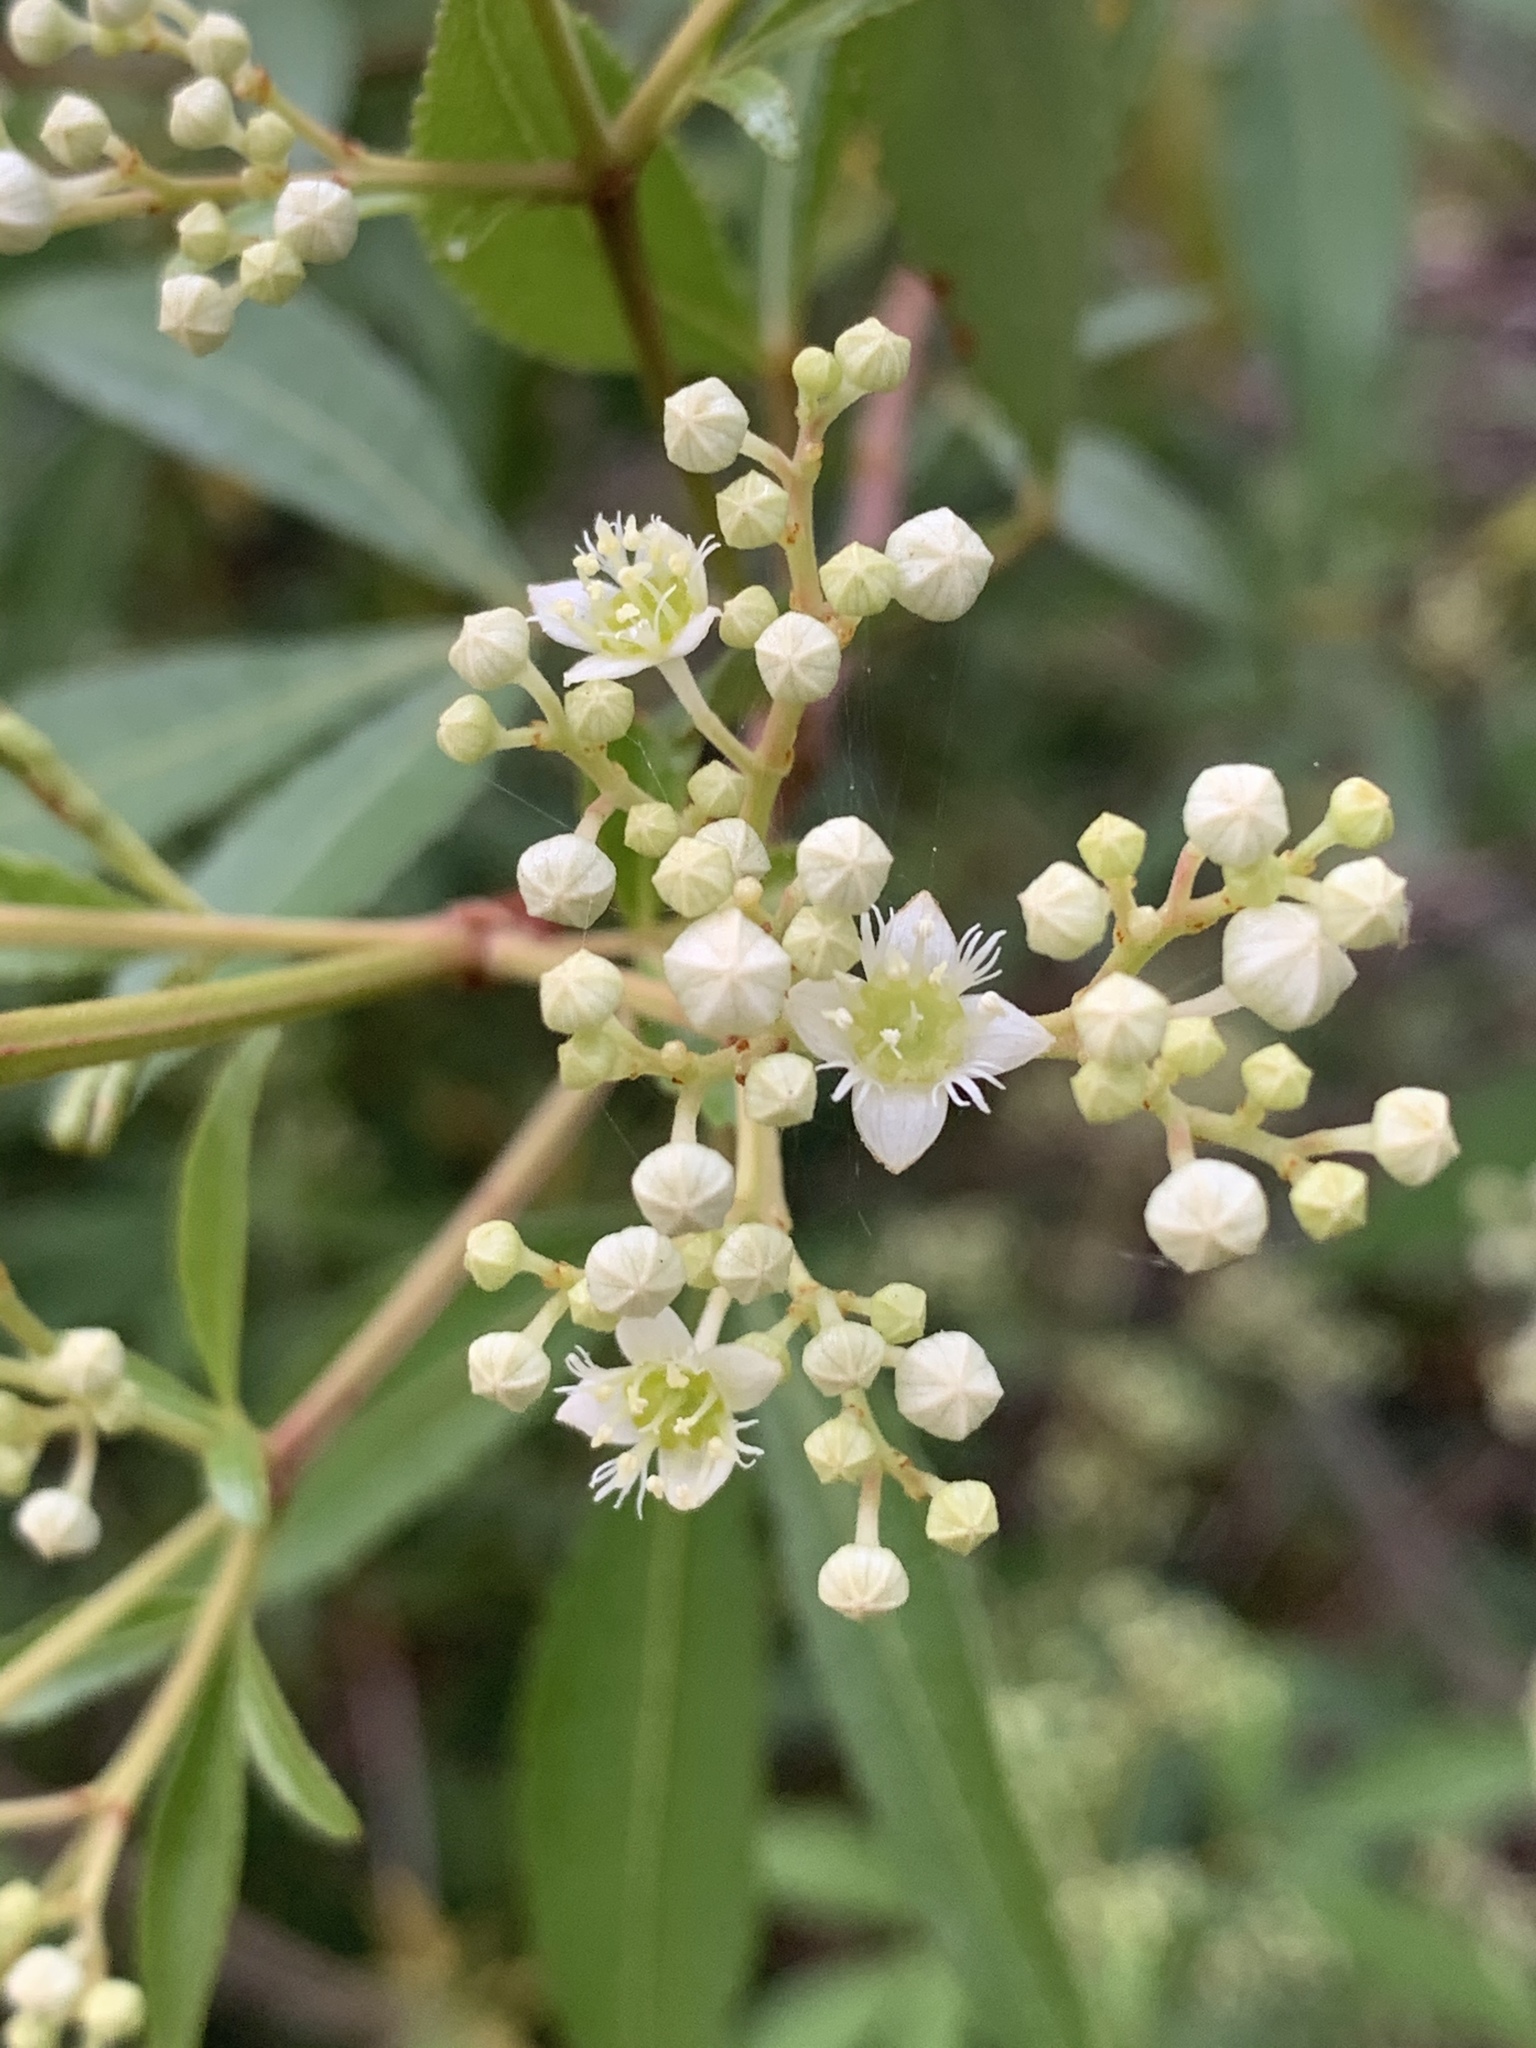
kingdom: Plantae
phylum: Tracheophyta
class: Magnoliopsida
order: Oxalidales
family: Cunoniaceae
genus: Ceratopetalum
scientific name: Ceratopetalum gummiferum
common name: Christmasbush
